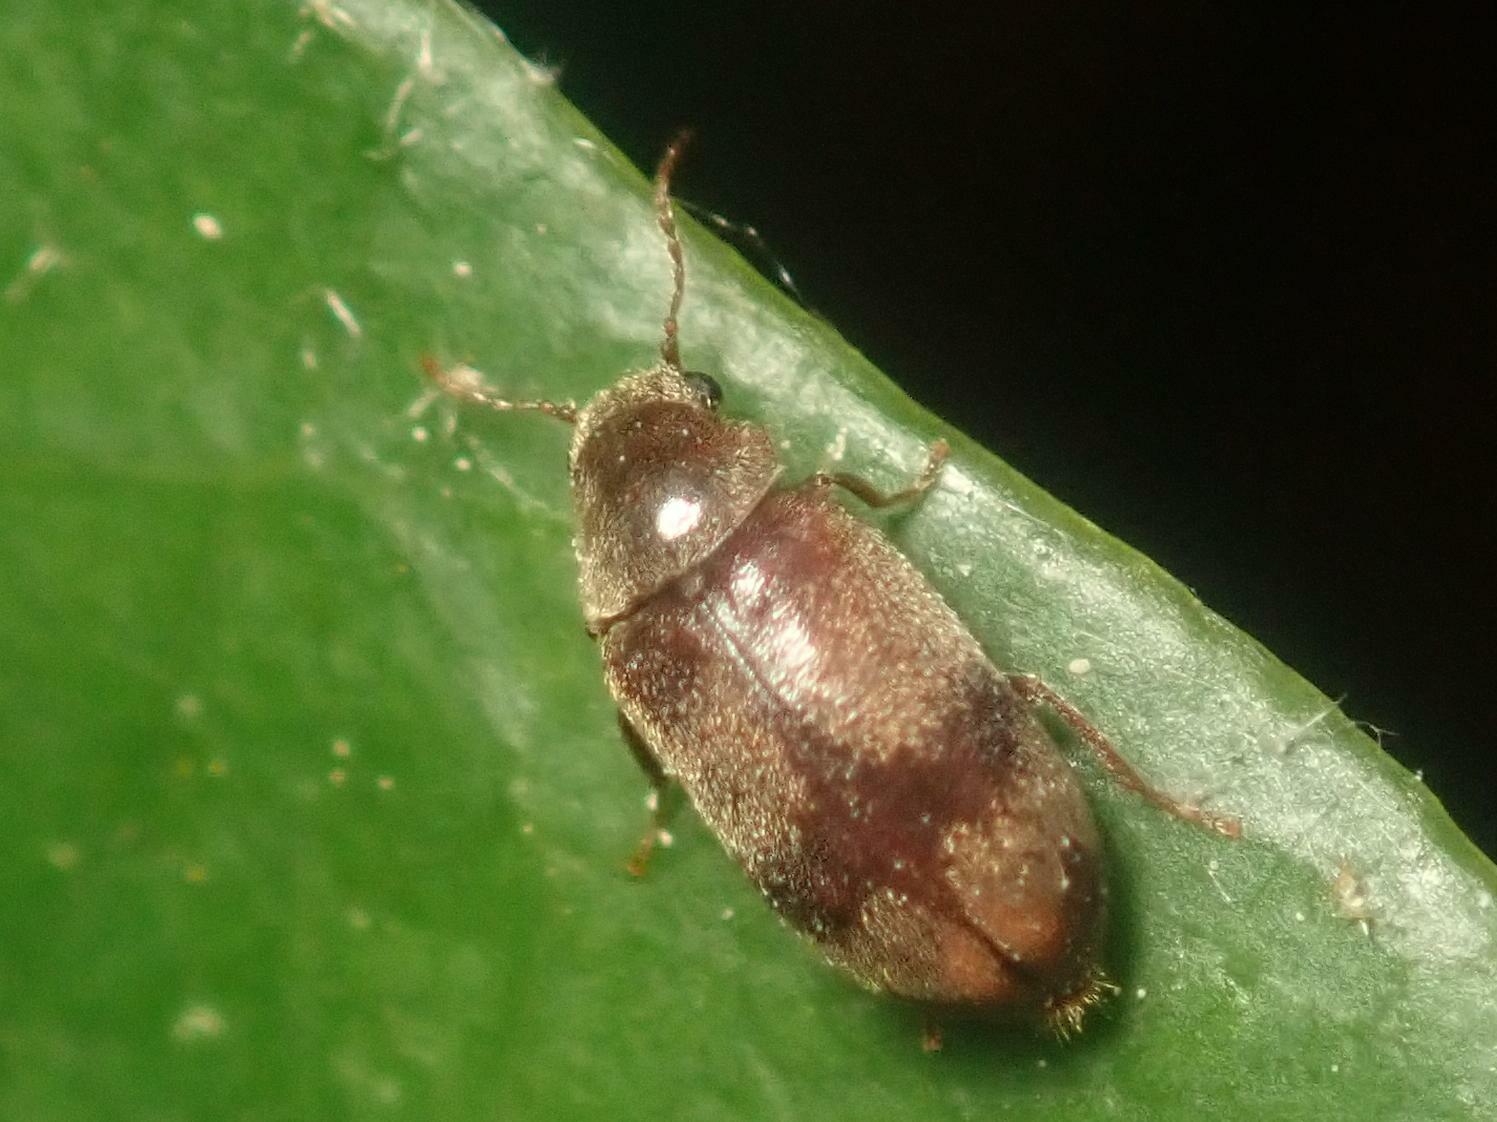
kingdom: Animalia
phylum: Arthropoda
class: Insecta
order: Coleoptera
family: Ptinidae
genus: Ochina
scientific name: Ochina ptinoides
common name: Ivy boring beetle
